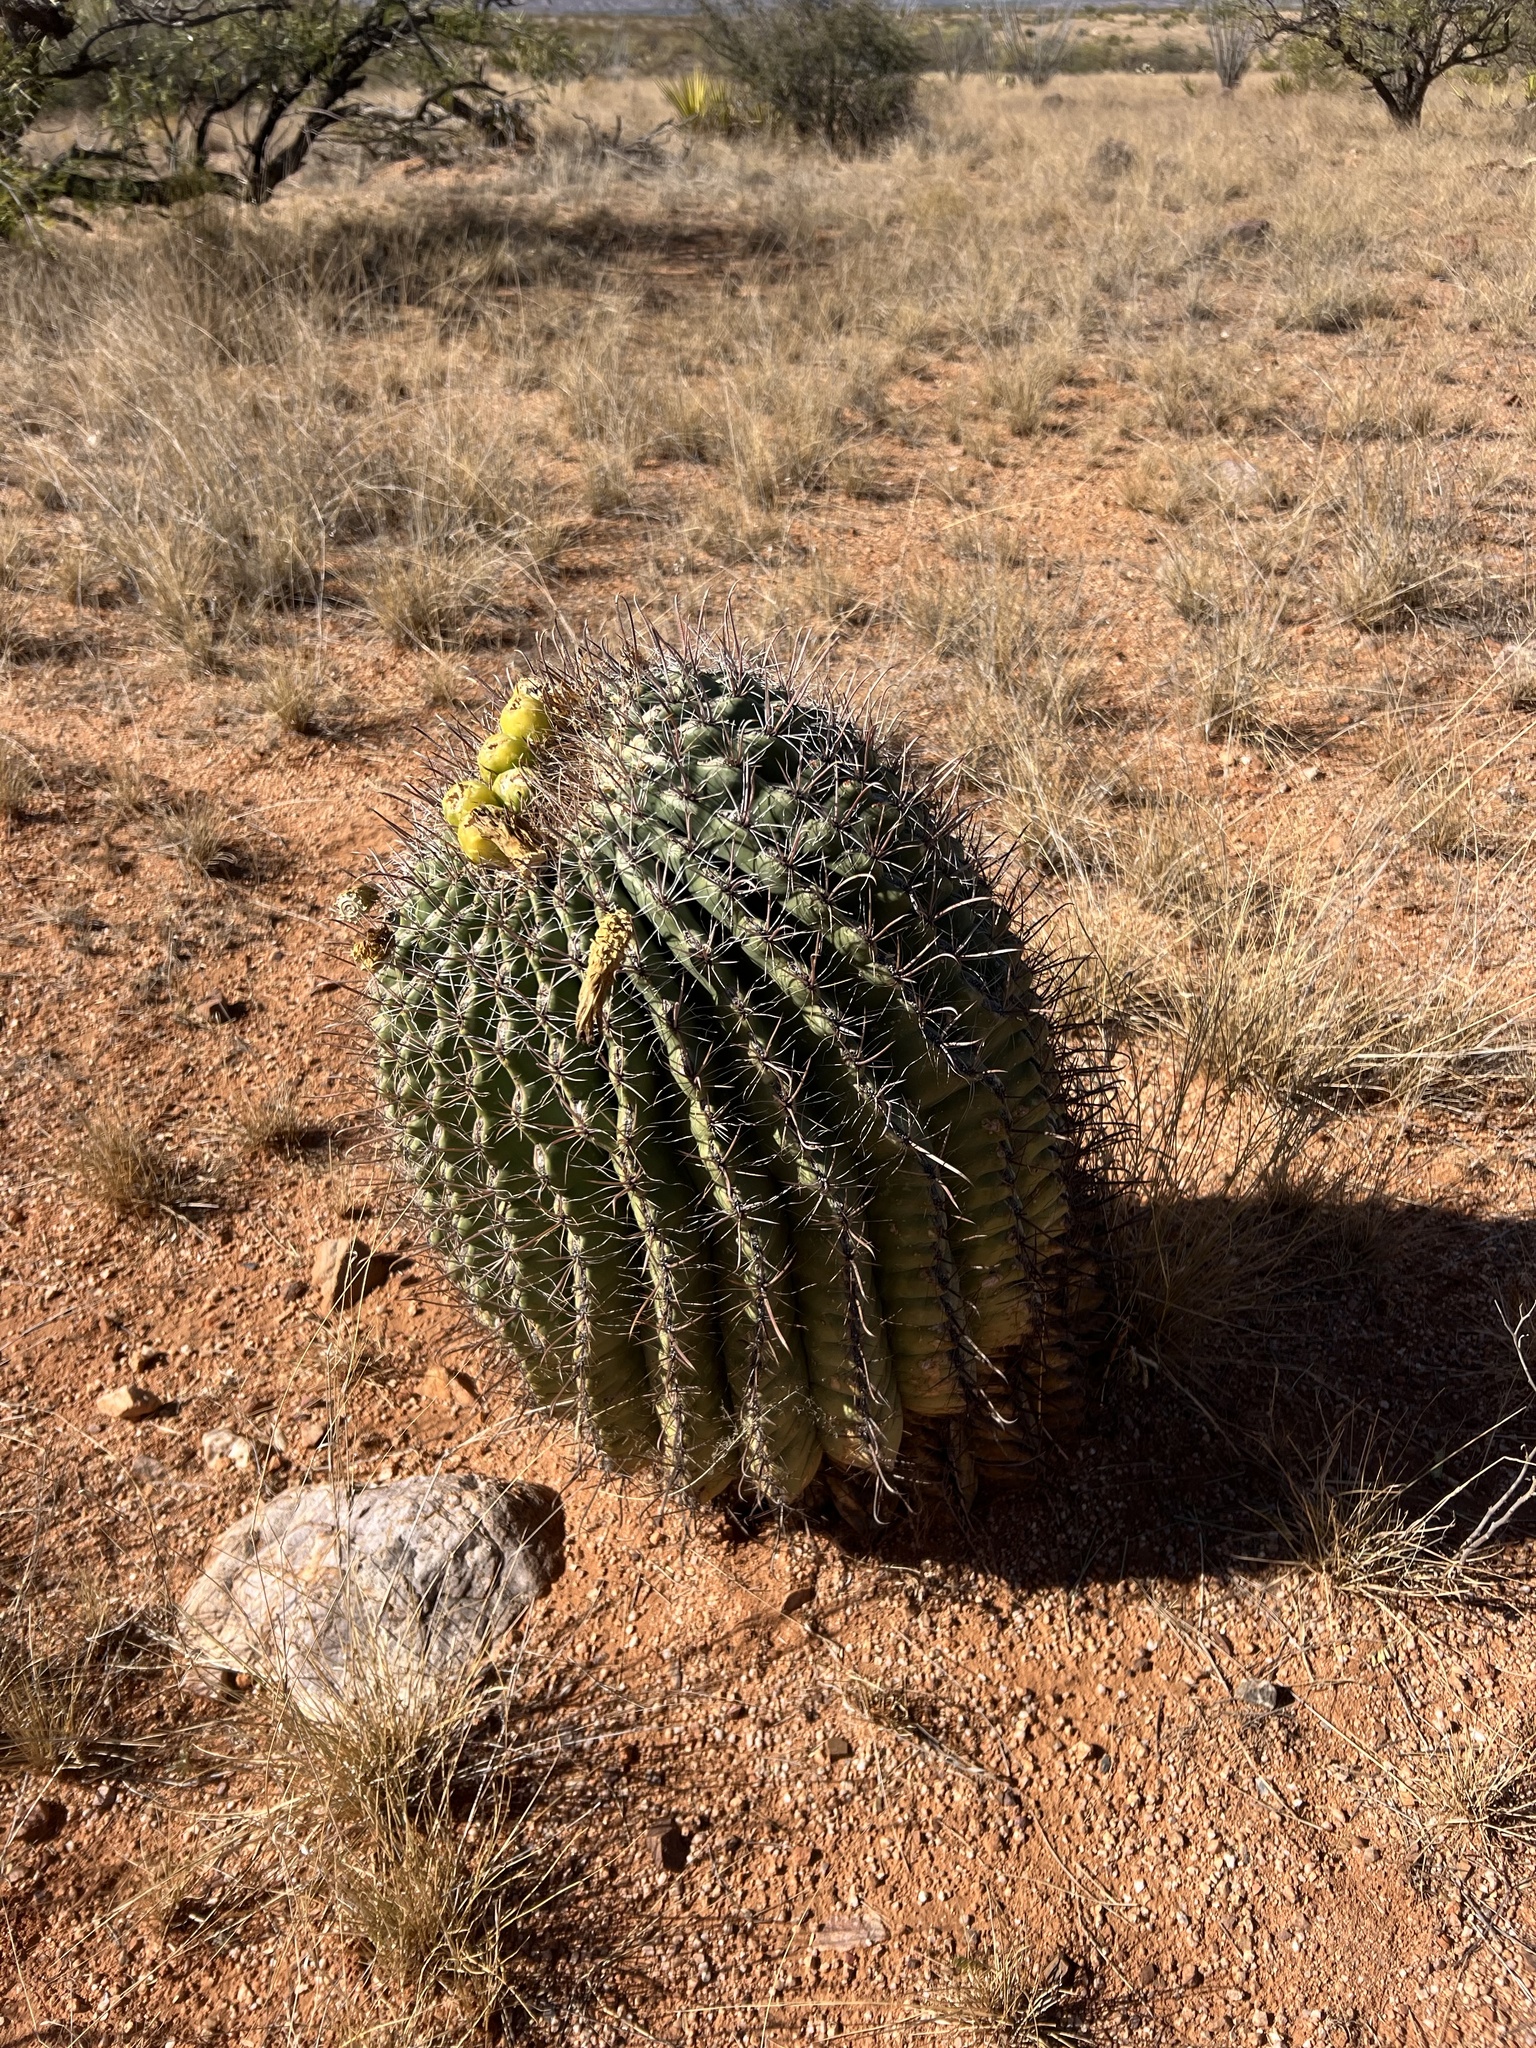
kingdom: Plantae
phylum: Tracheophyta
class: Magnoliopsida
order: Caryophyllales
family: Cactaceae
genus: Ferocactus
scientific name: Ferocactus wislizeni
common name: Candy barrel cactus
